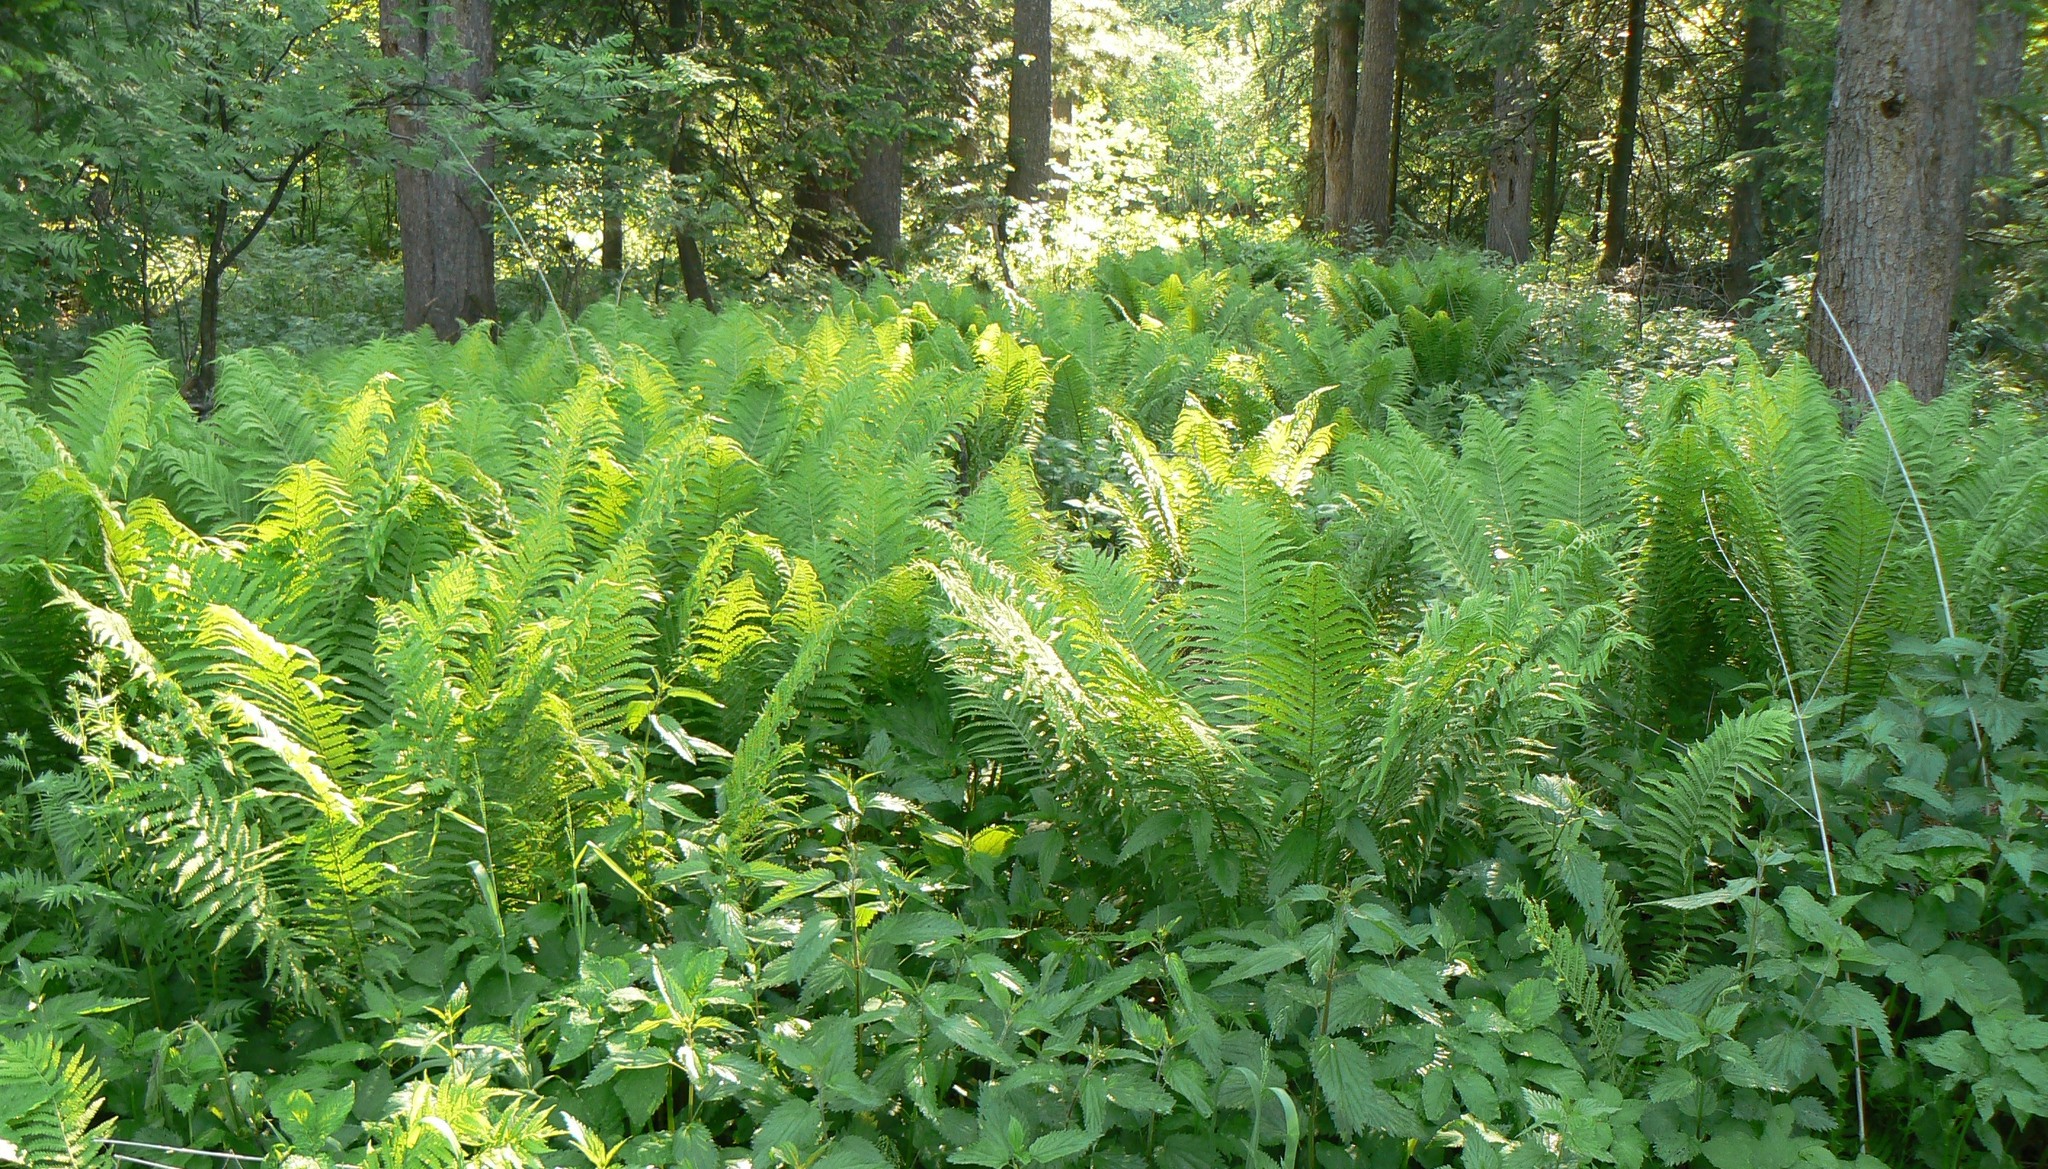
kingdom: Plantae
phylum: Tracheophyta
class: Polypodiopsida
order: Polypodiales
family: Onocleaceae
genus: Matteuccia
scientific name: Matteuccia struthiopteris
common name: Ostrich fern
